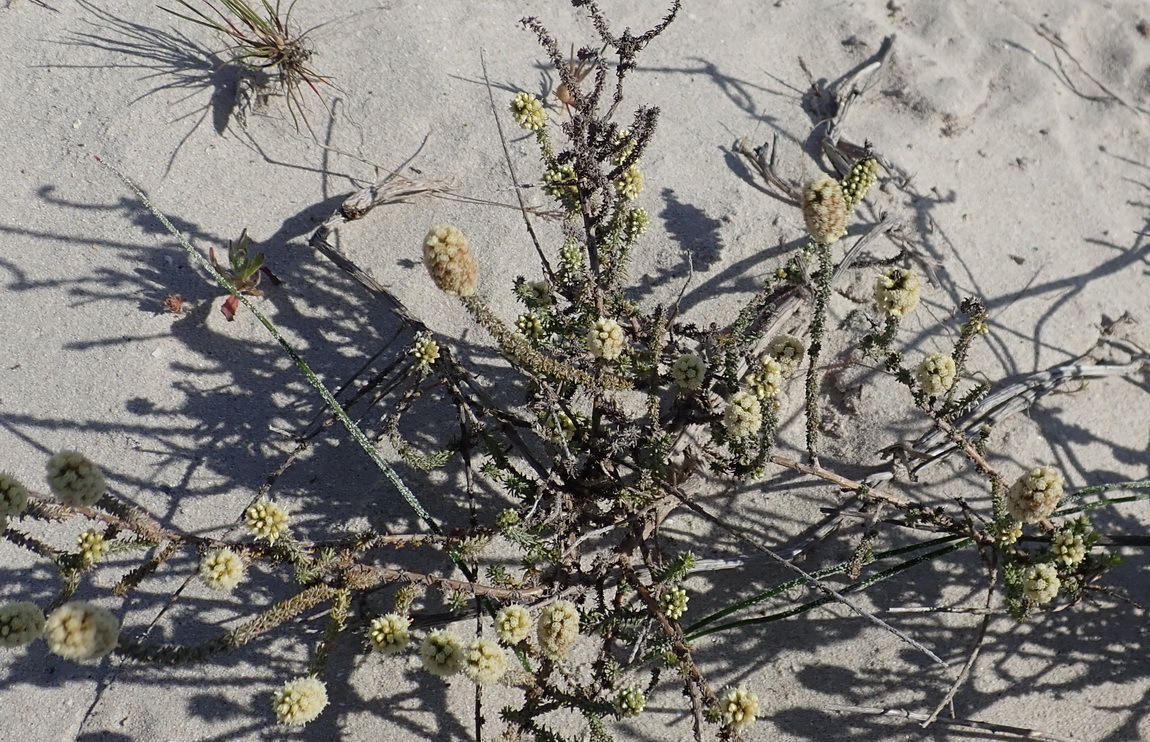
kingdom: Plantae
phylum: Tracheophyta
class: Magnoliopsida
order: Asterales
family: Asteraceae
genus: Ifloga
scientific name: Ifloga repens
